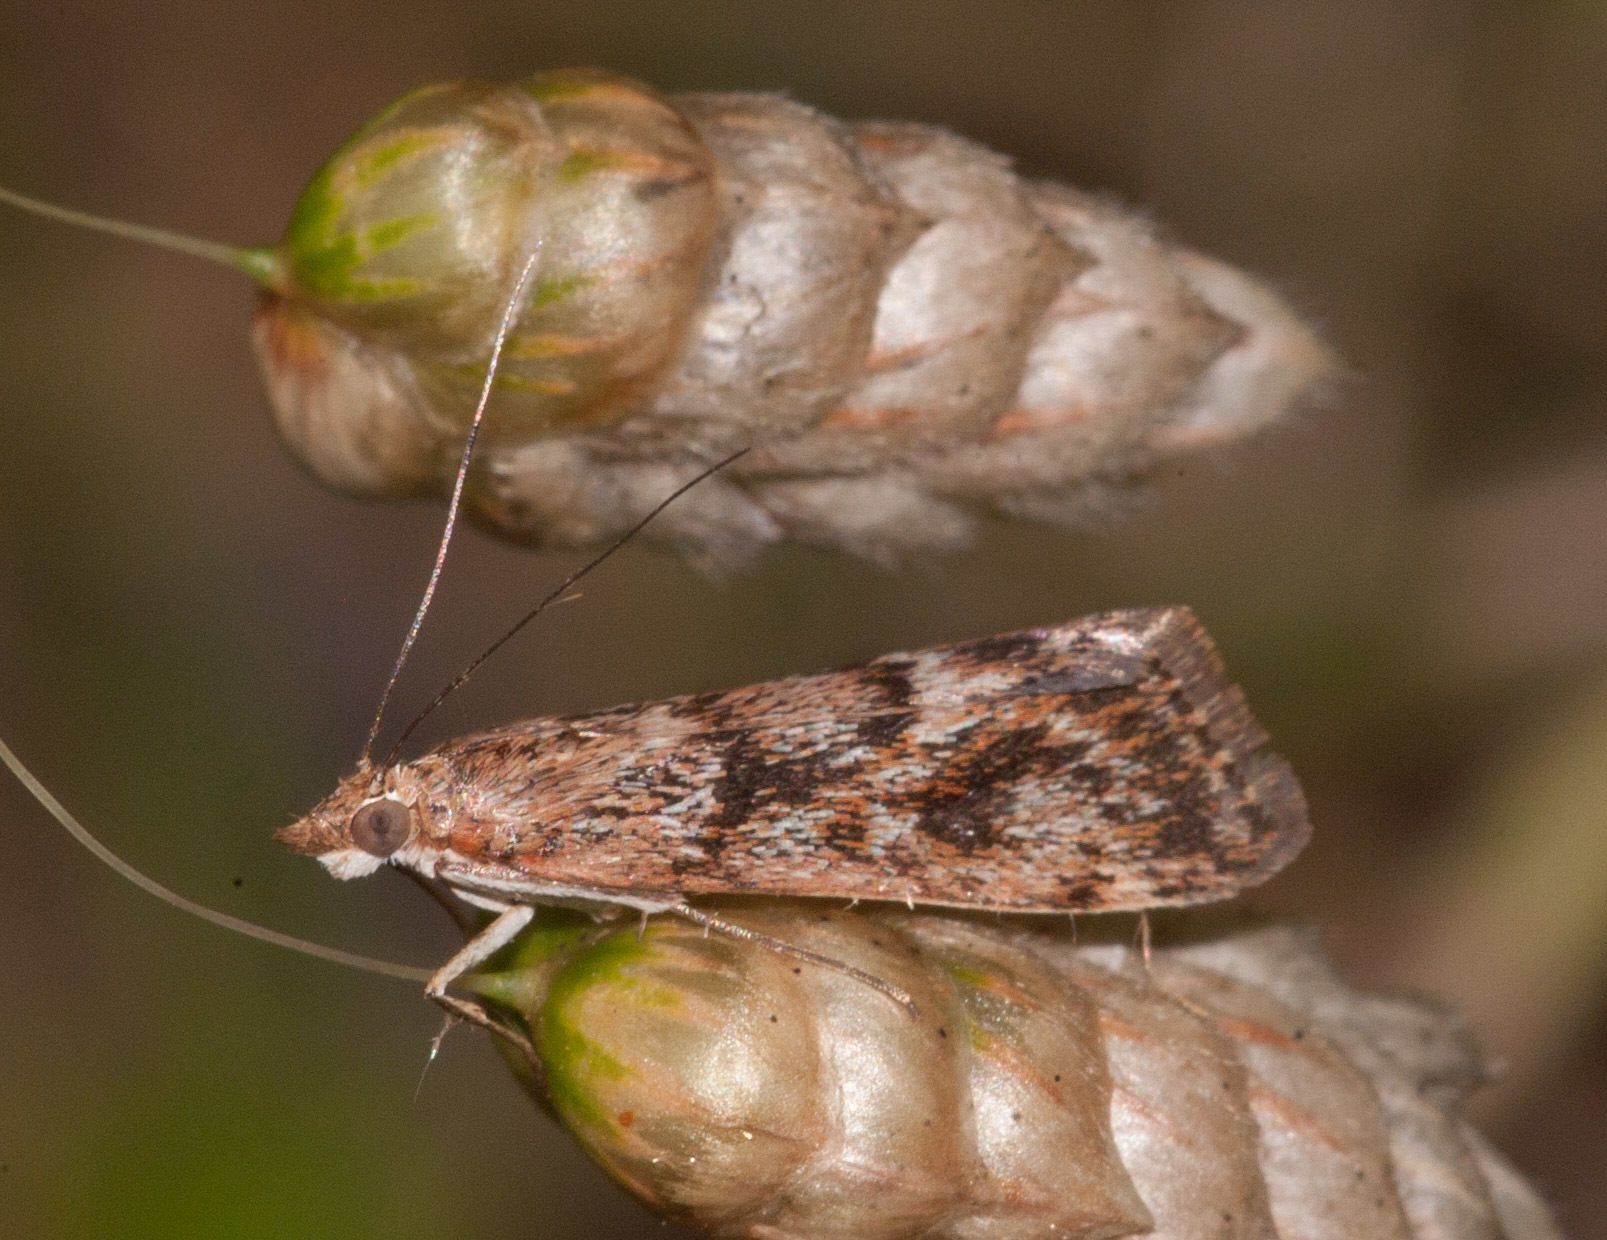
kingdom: Animalia
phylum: Arthropoda
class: Insecta
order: Lepidoptera
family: Crambidae
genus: Achyra
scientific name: Achyra affinitalis
